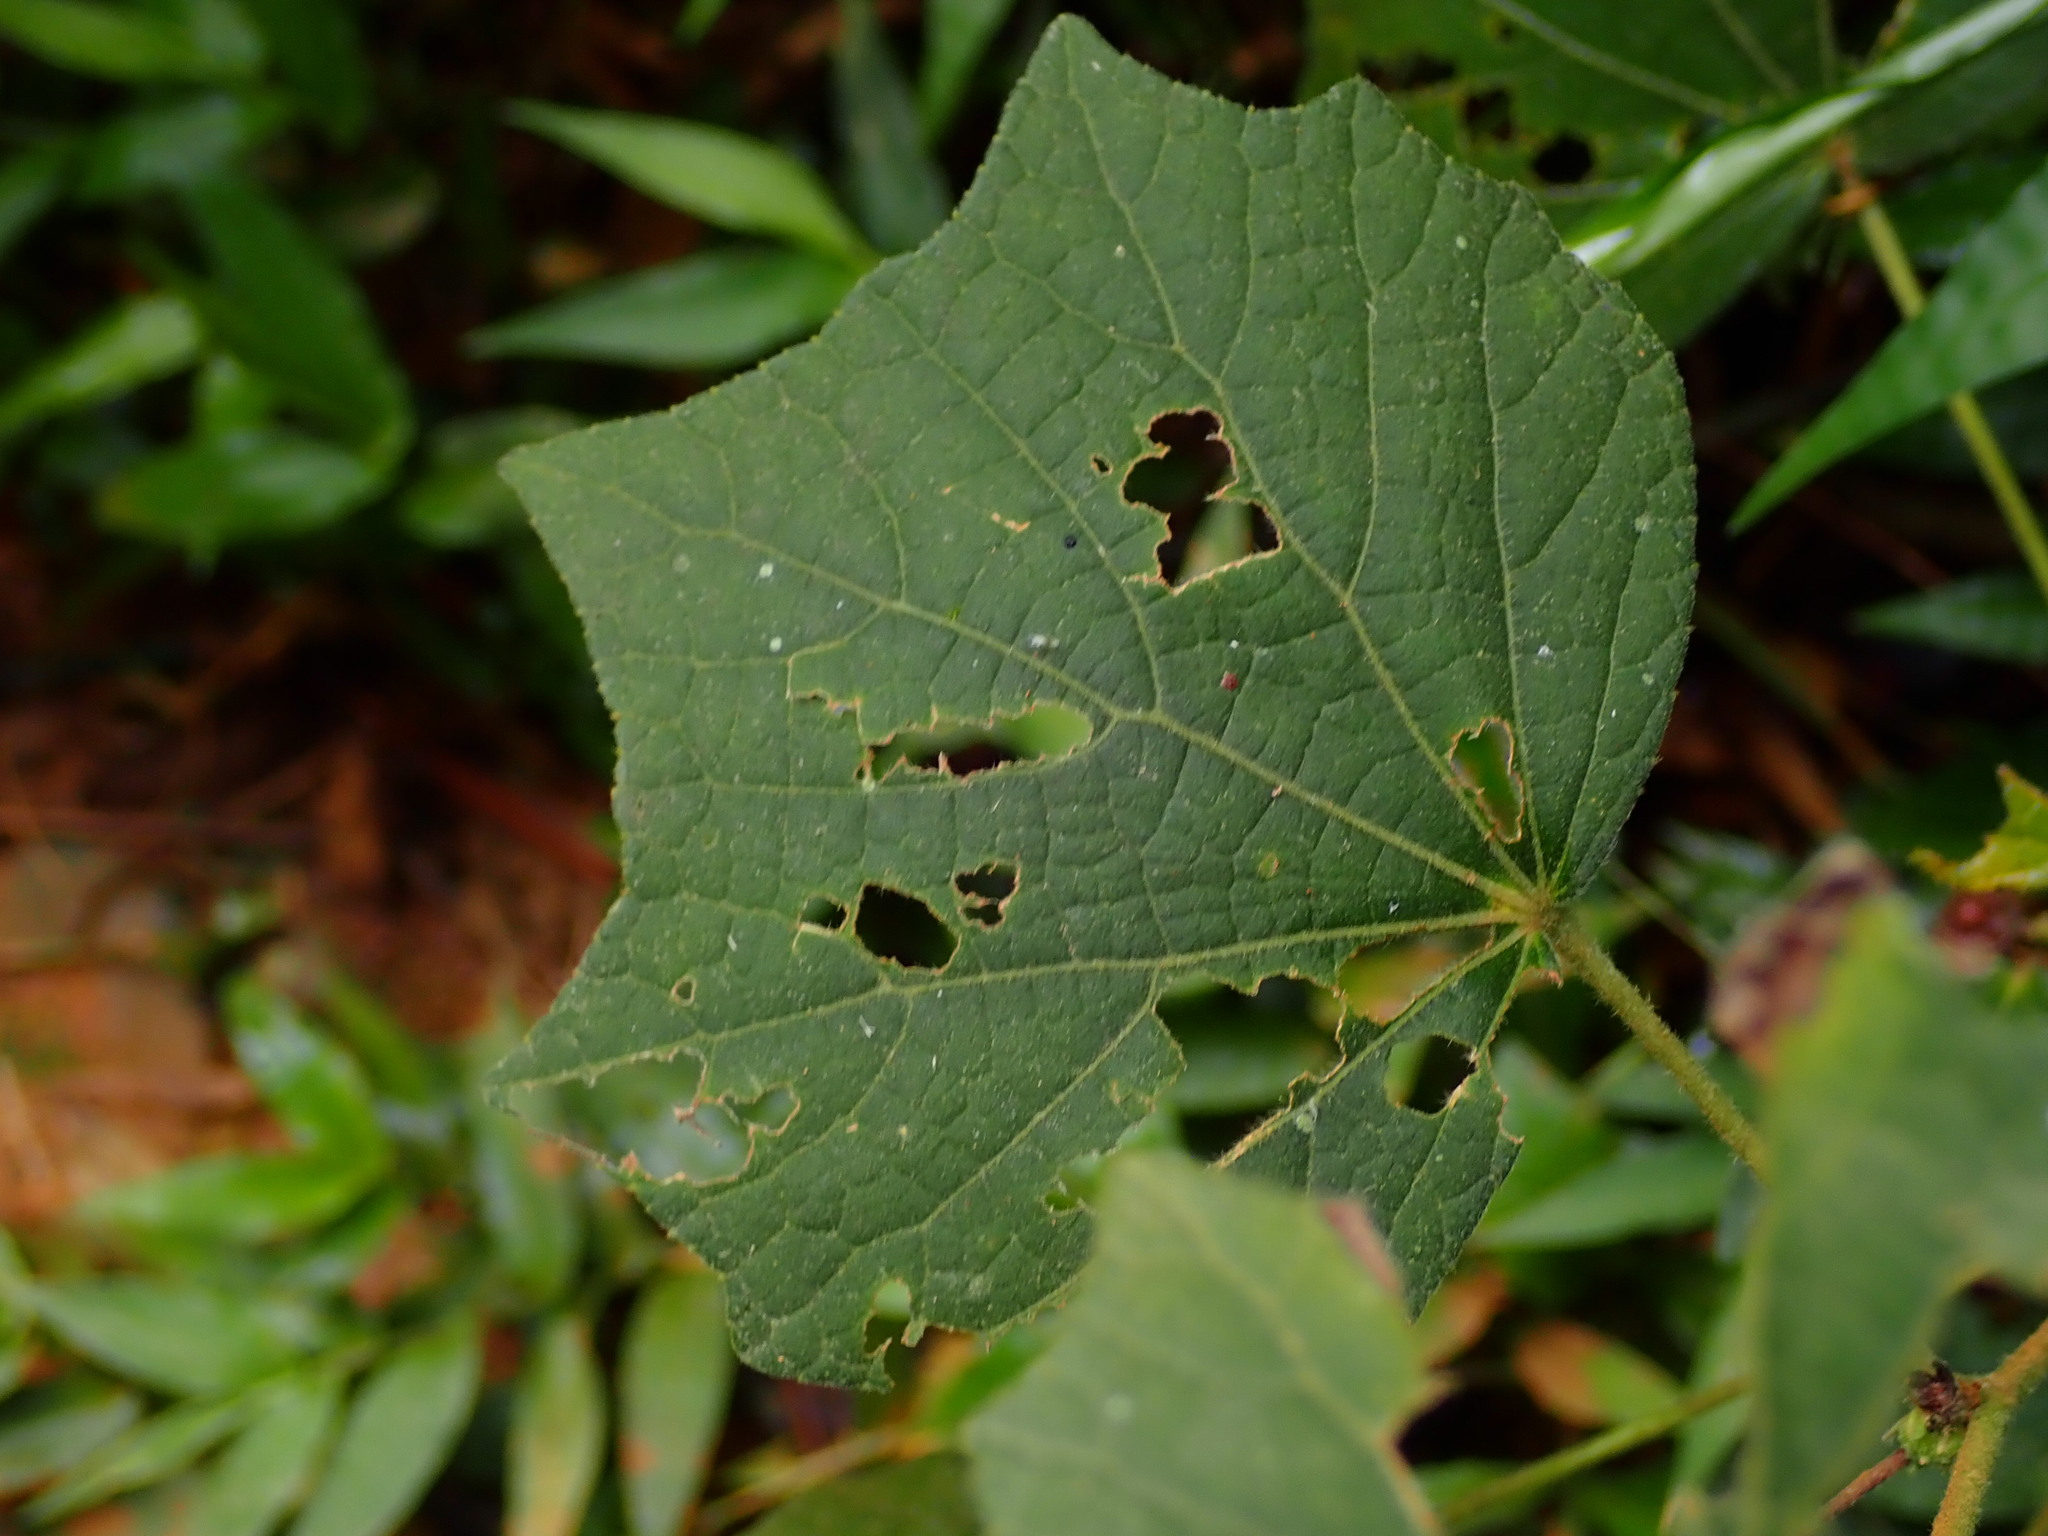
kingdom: Plantae
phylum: Tracheophyta
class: Magnoliopsida
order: Malvales
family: Malvaceae
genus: Urena
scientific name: Urena lobata
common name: Caesarweed
